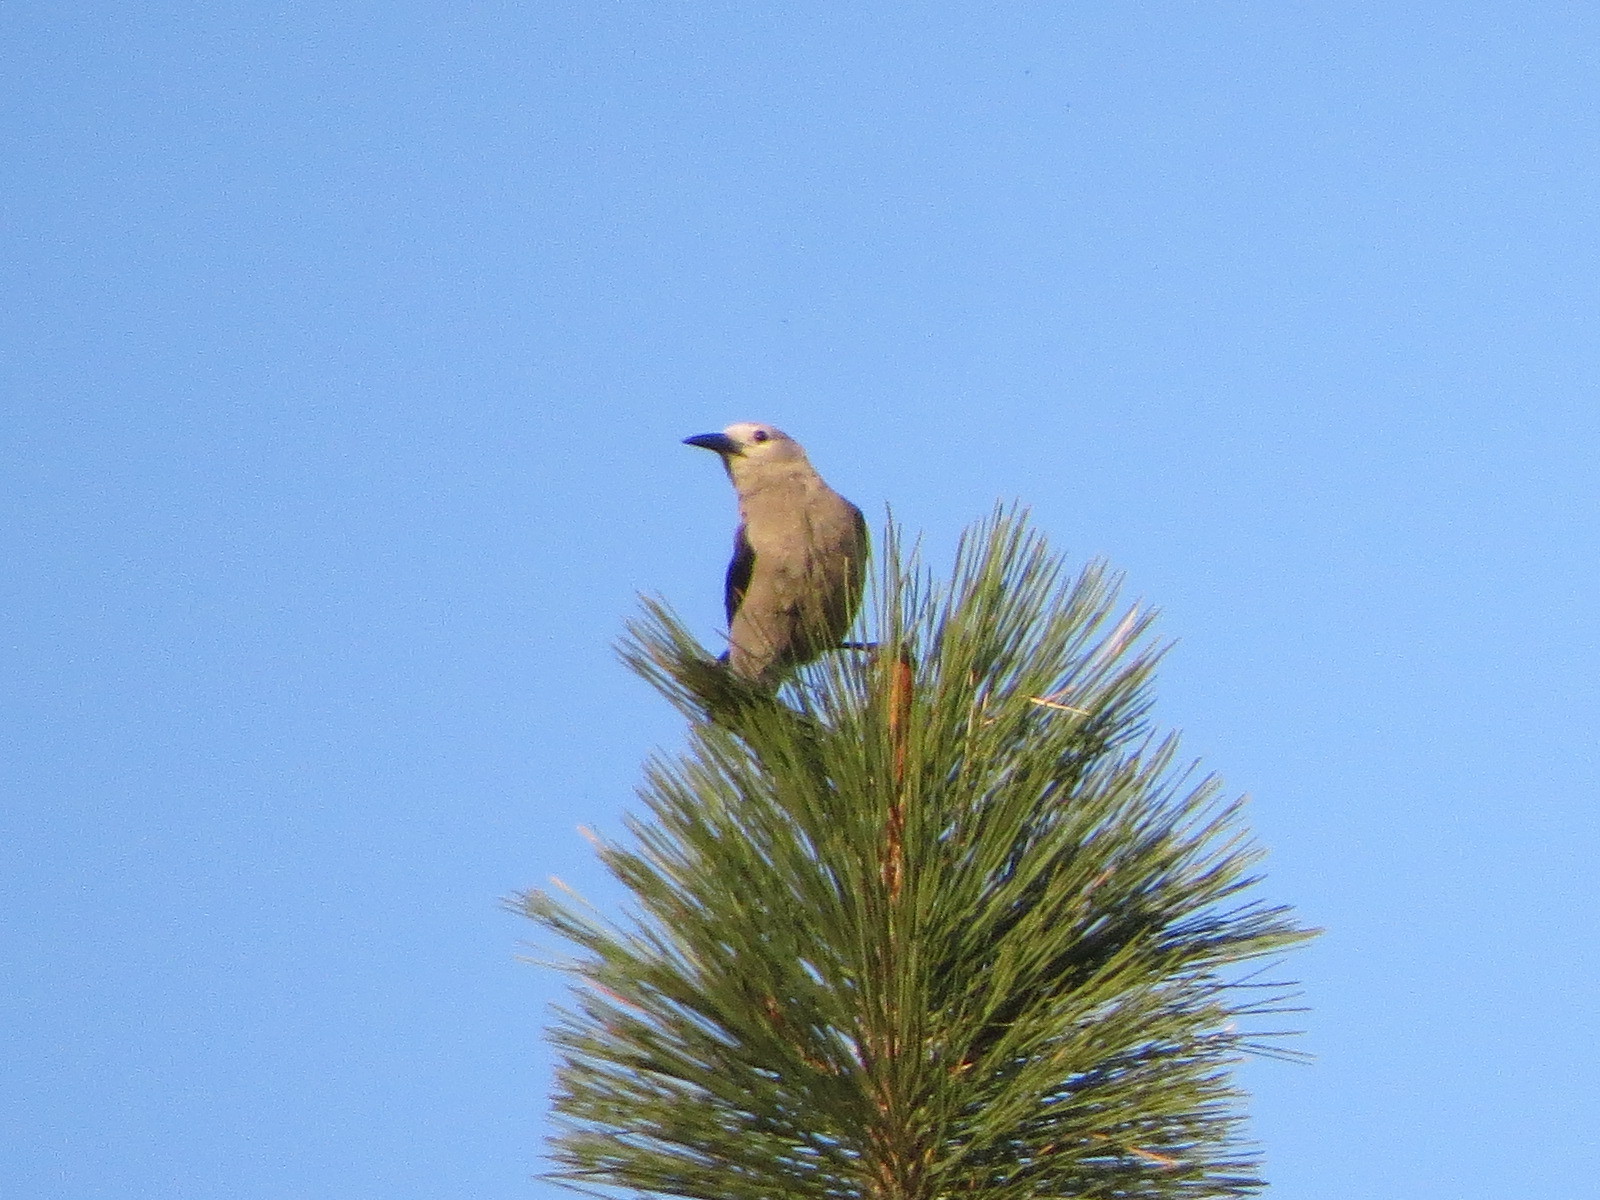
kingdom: Animalia
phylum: Chordata
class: Aves
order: Passeriformes
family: Corvidae
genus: Nucifraga
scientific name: Nucifraga columbiana
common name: Clark's nutcracker
